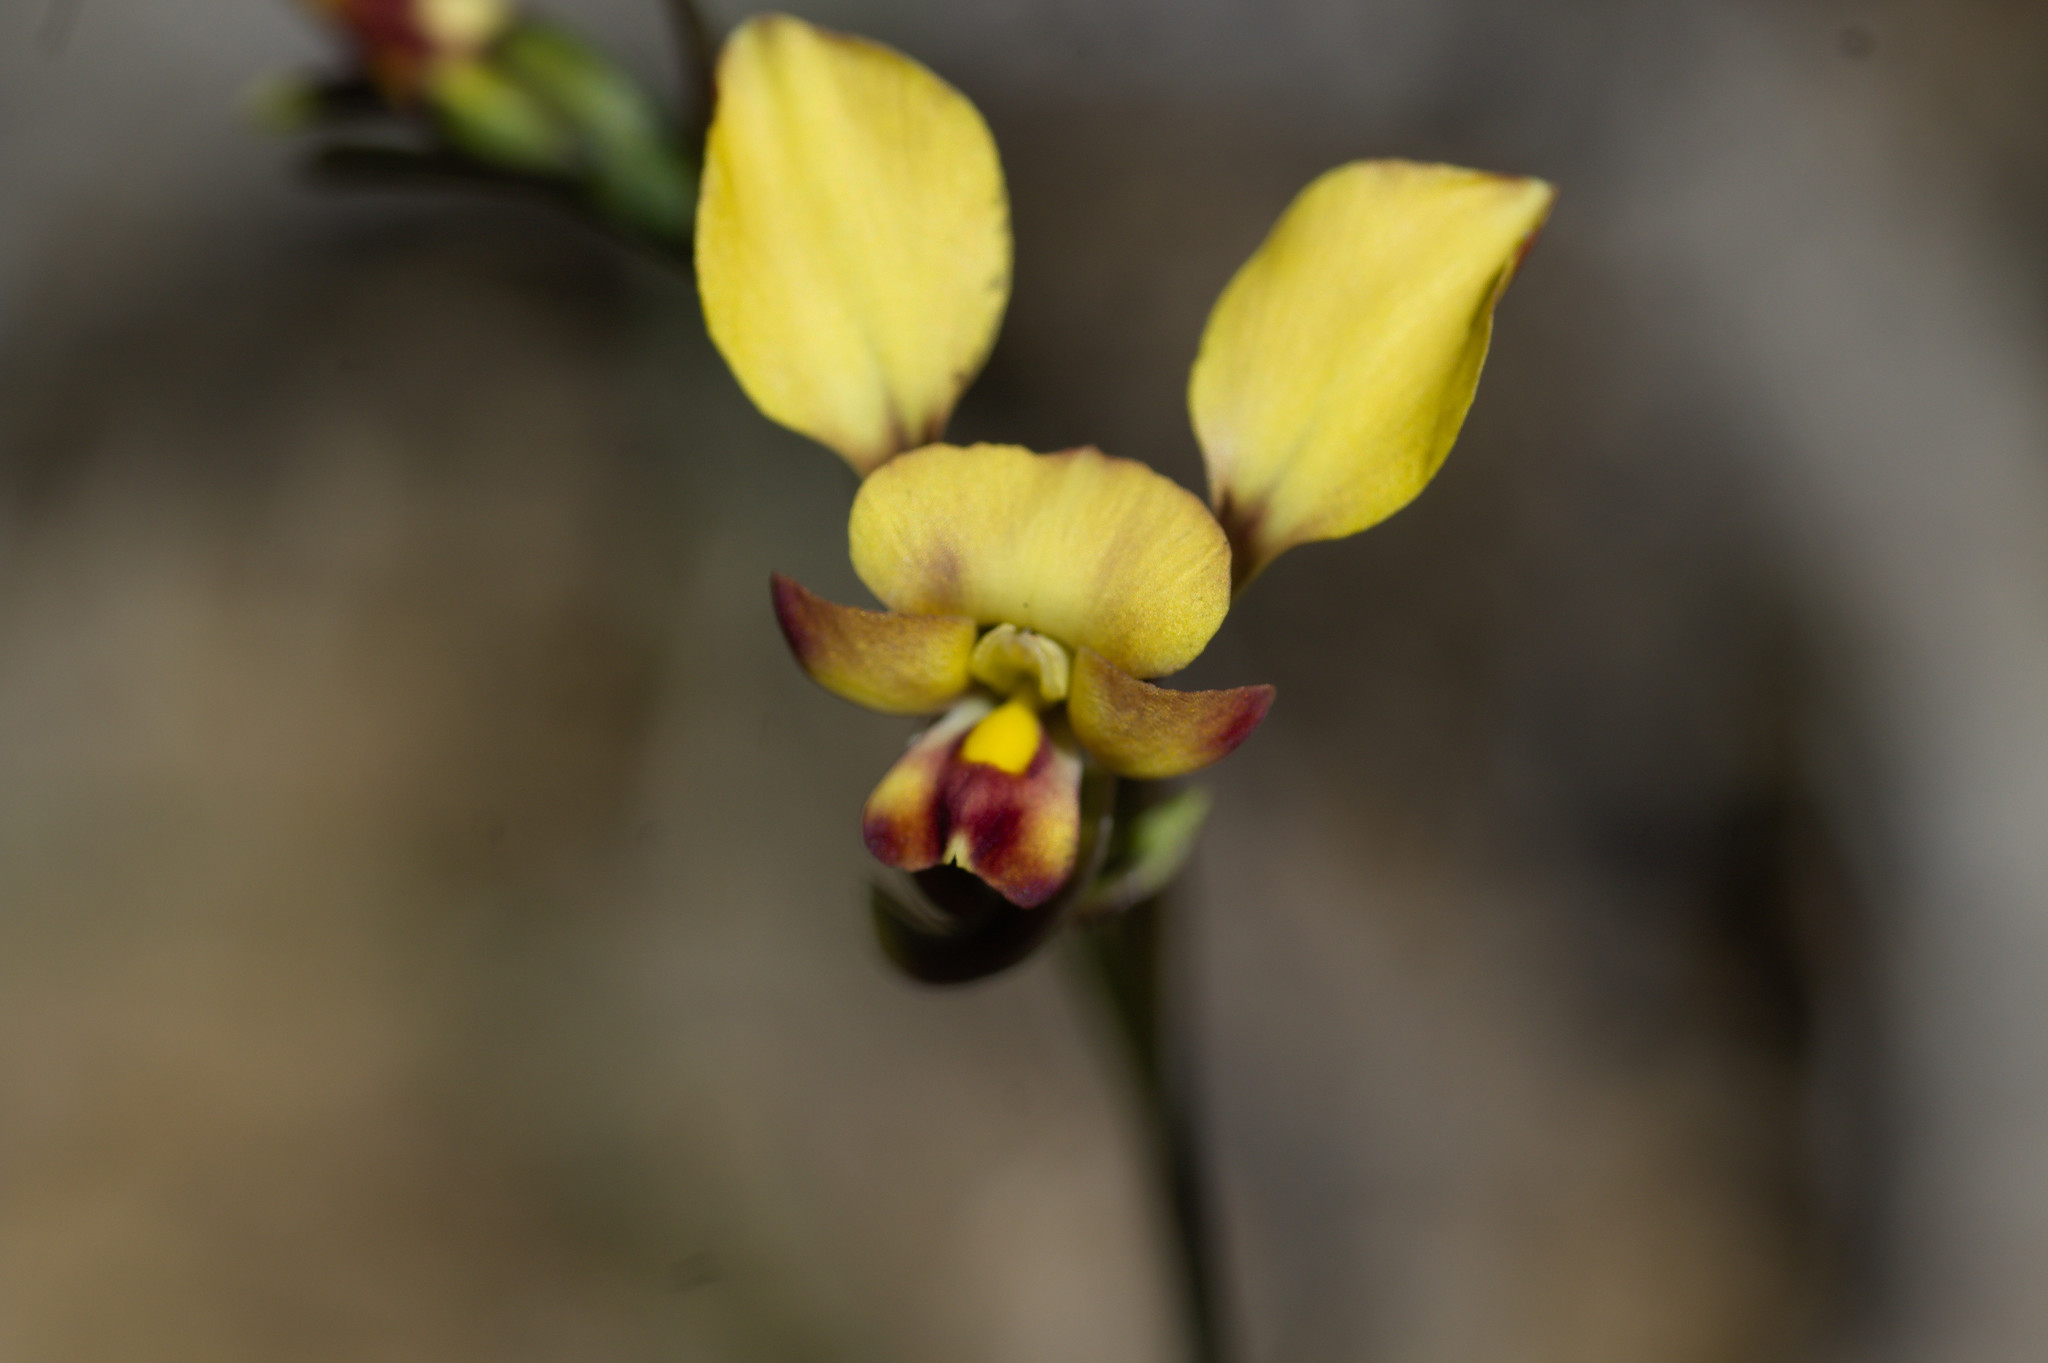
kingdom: Plantae
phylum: Tracheophyta
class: Liliopsida
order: Asparagales
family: Orchidaceae
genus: Diuris
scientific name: Diuris refracta
